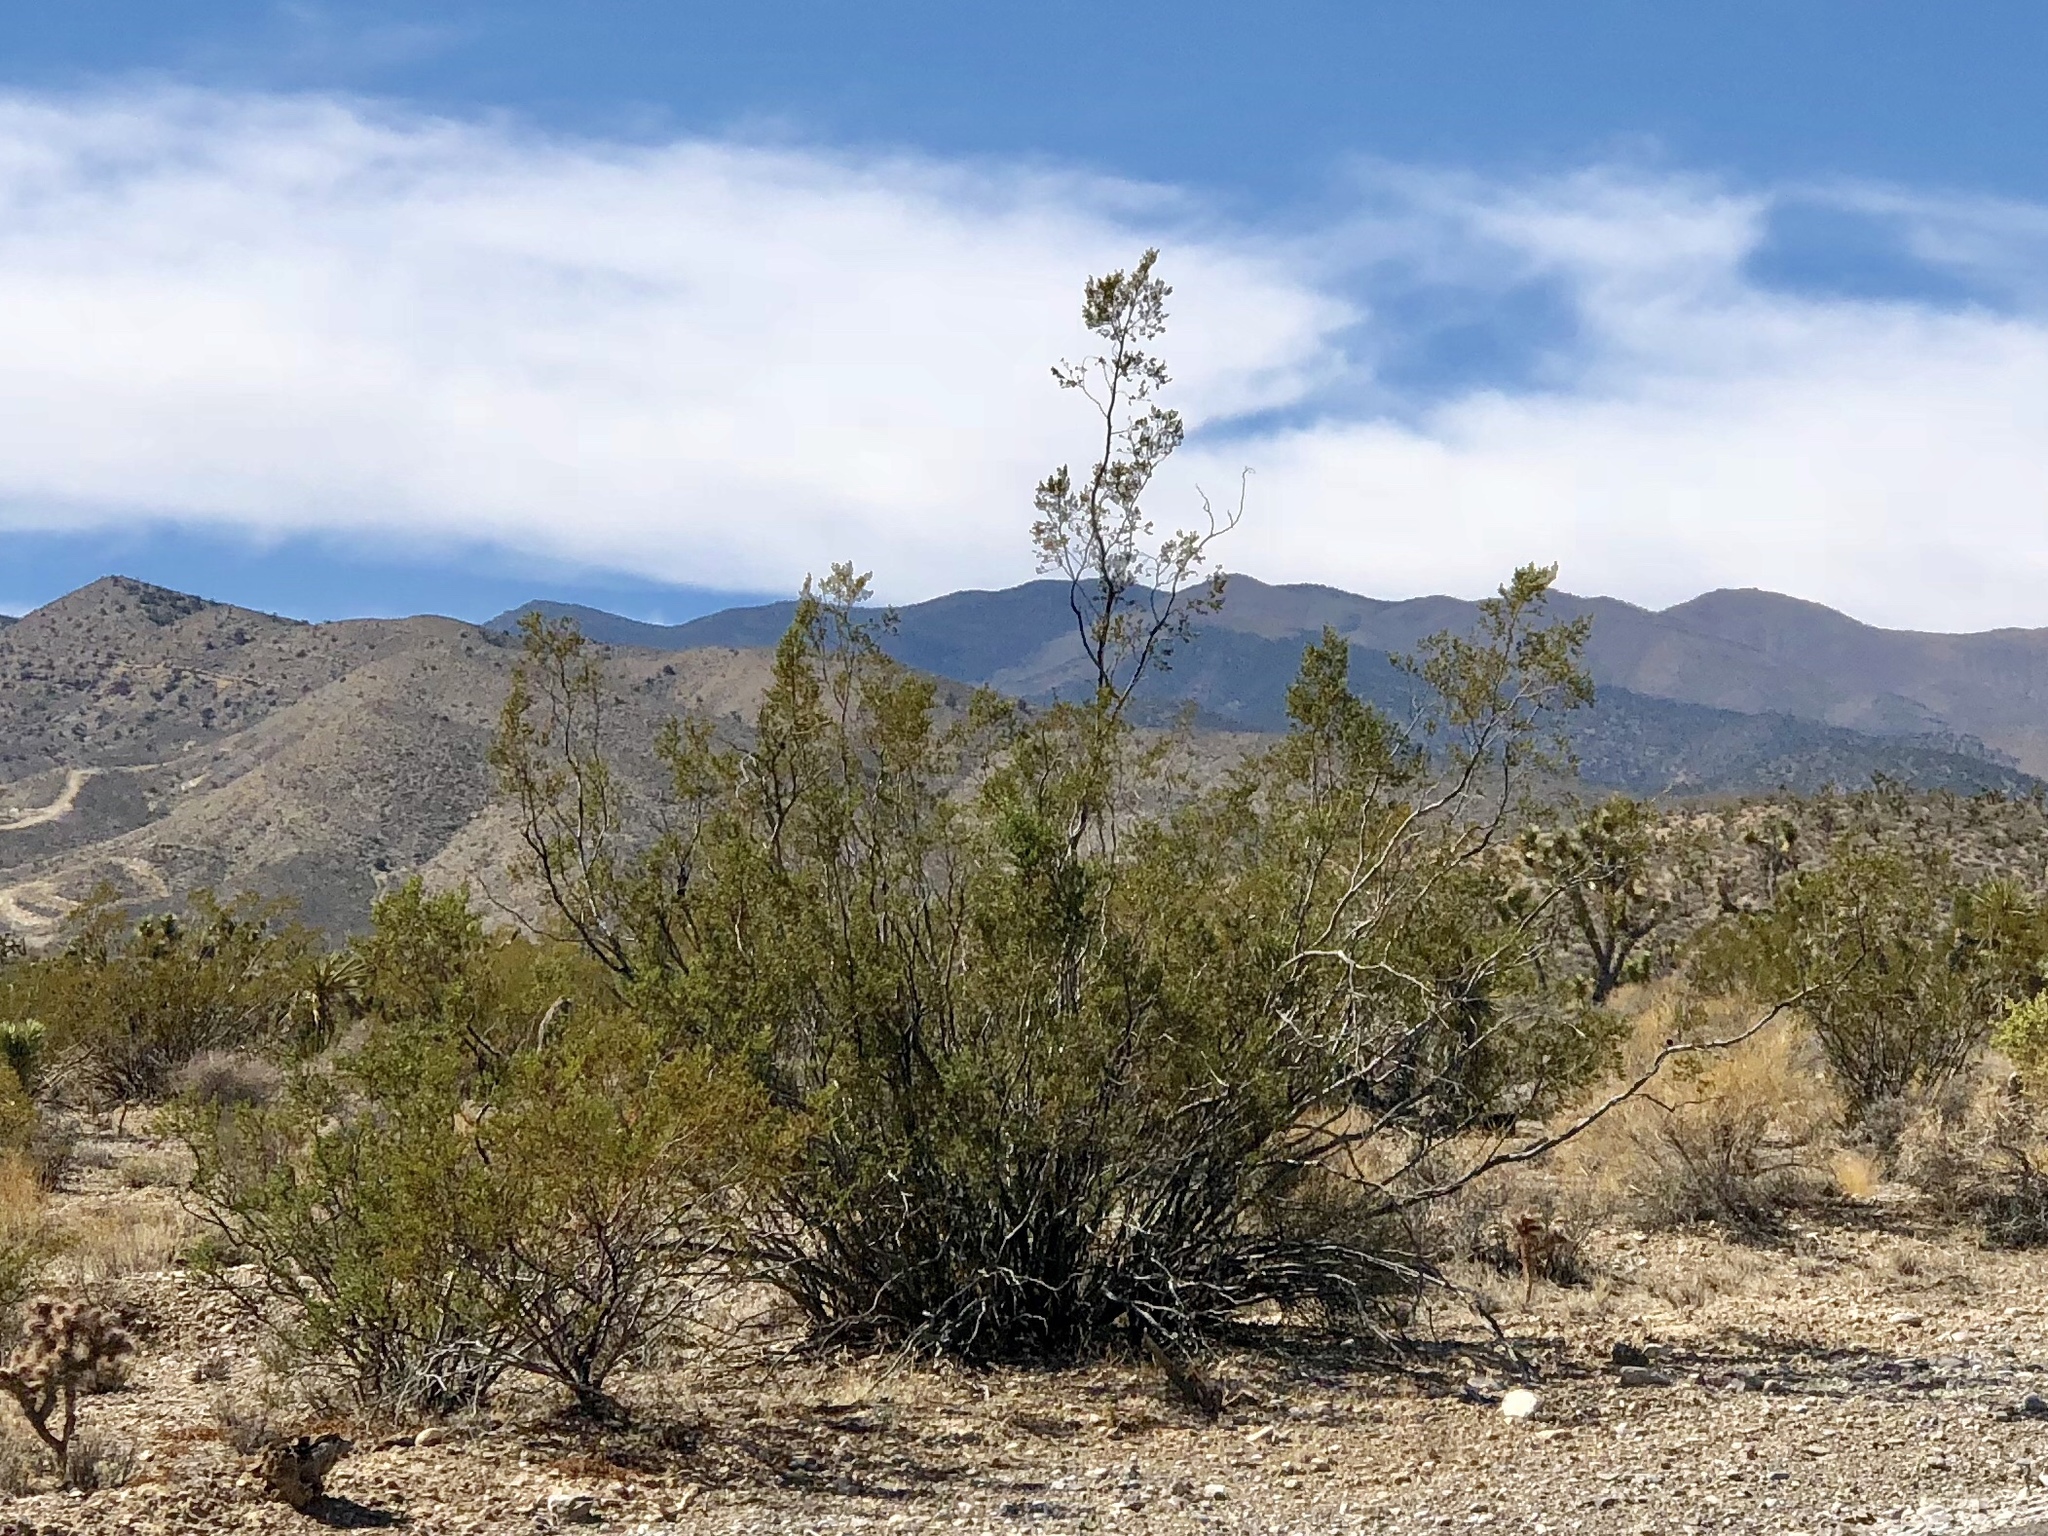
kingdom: Plantae
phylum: Tracheophyta
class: Magnoliopsida
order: Zygophyllales
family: Zygophyllaceae
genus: Larrea
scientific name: Larrea tridentata
